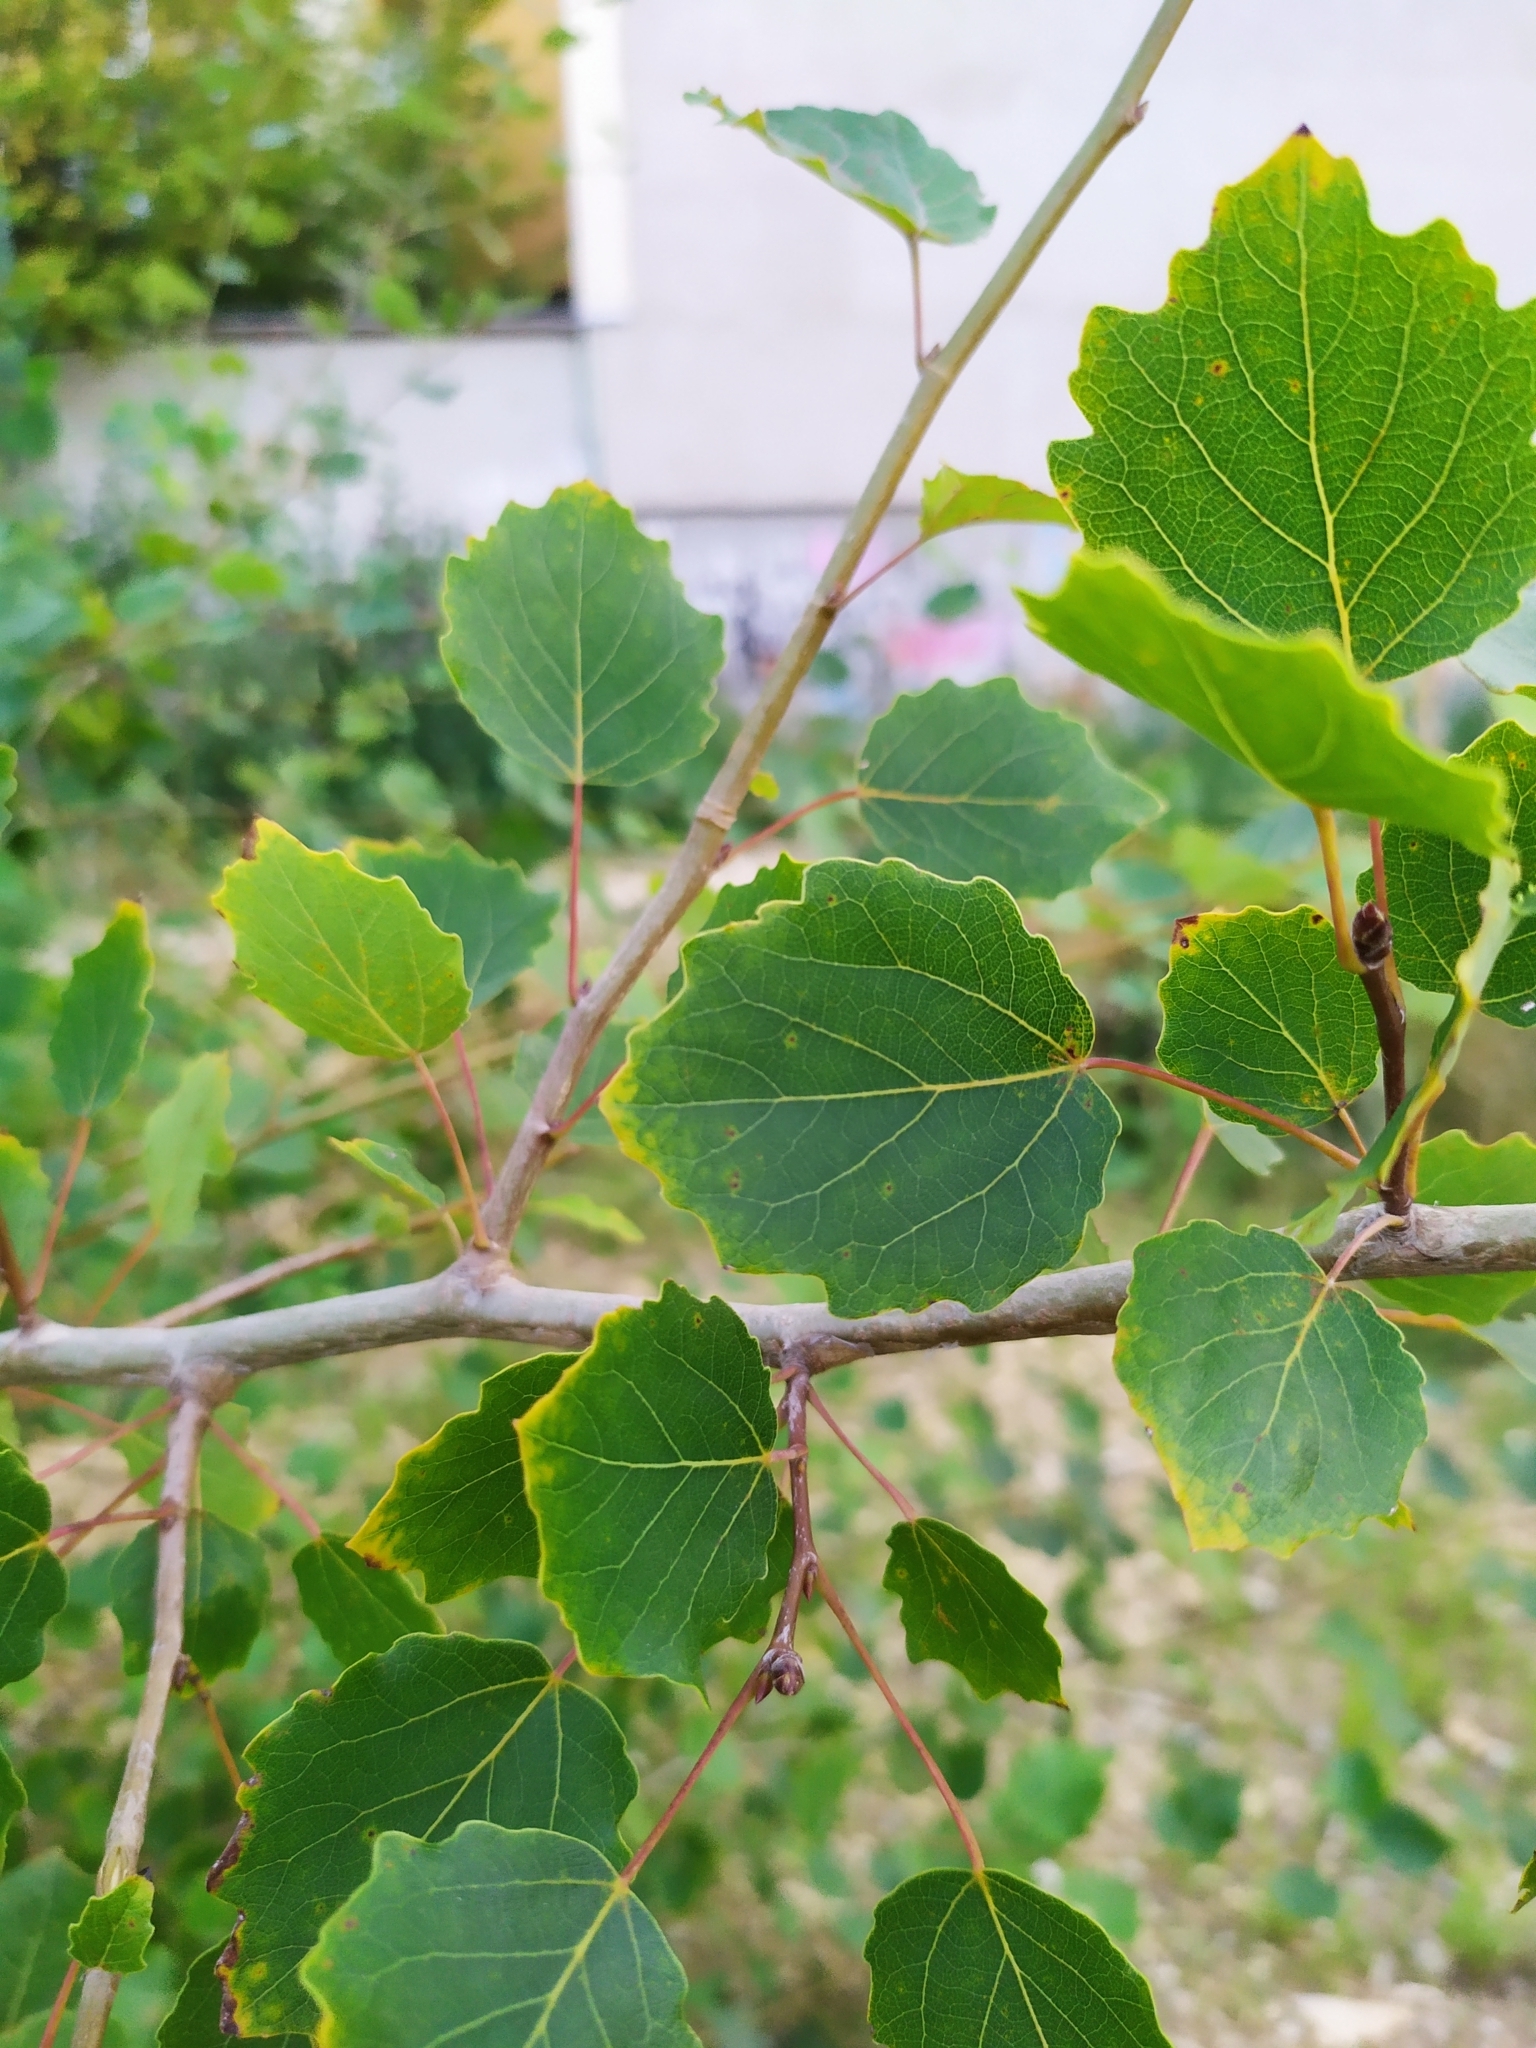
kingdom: Plantae
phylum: Tracheophyta
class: Magnoliopsida
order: Malpighiales
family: Salicaceae
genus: Populus
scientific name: Populus tremula
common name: European aspen
